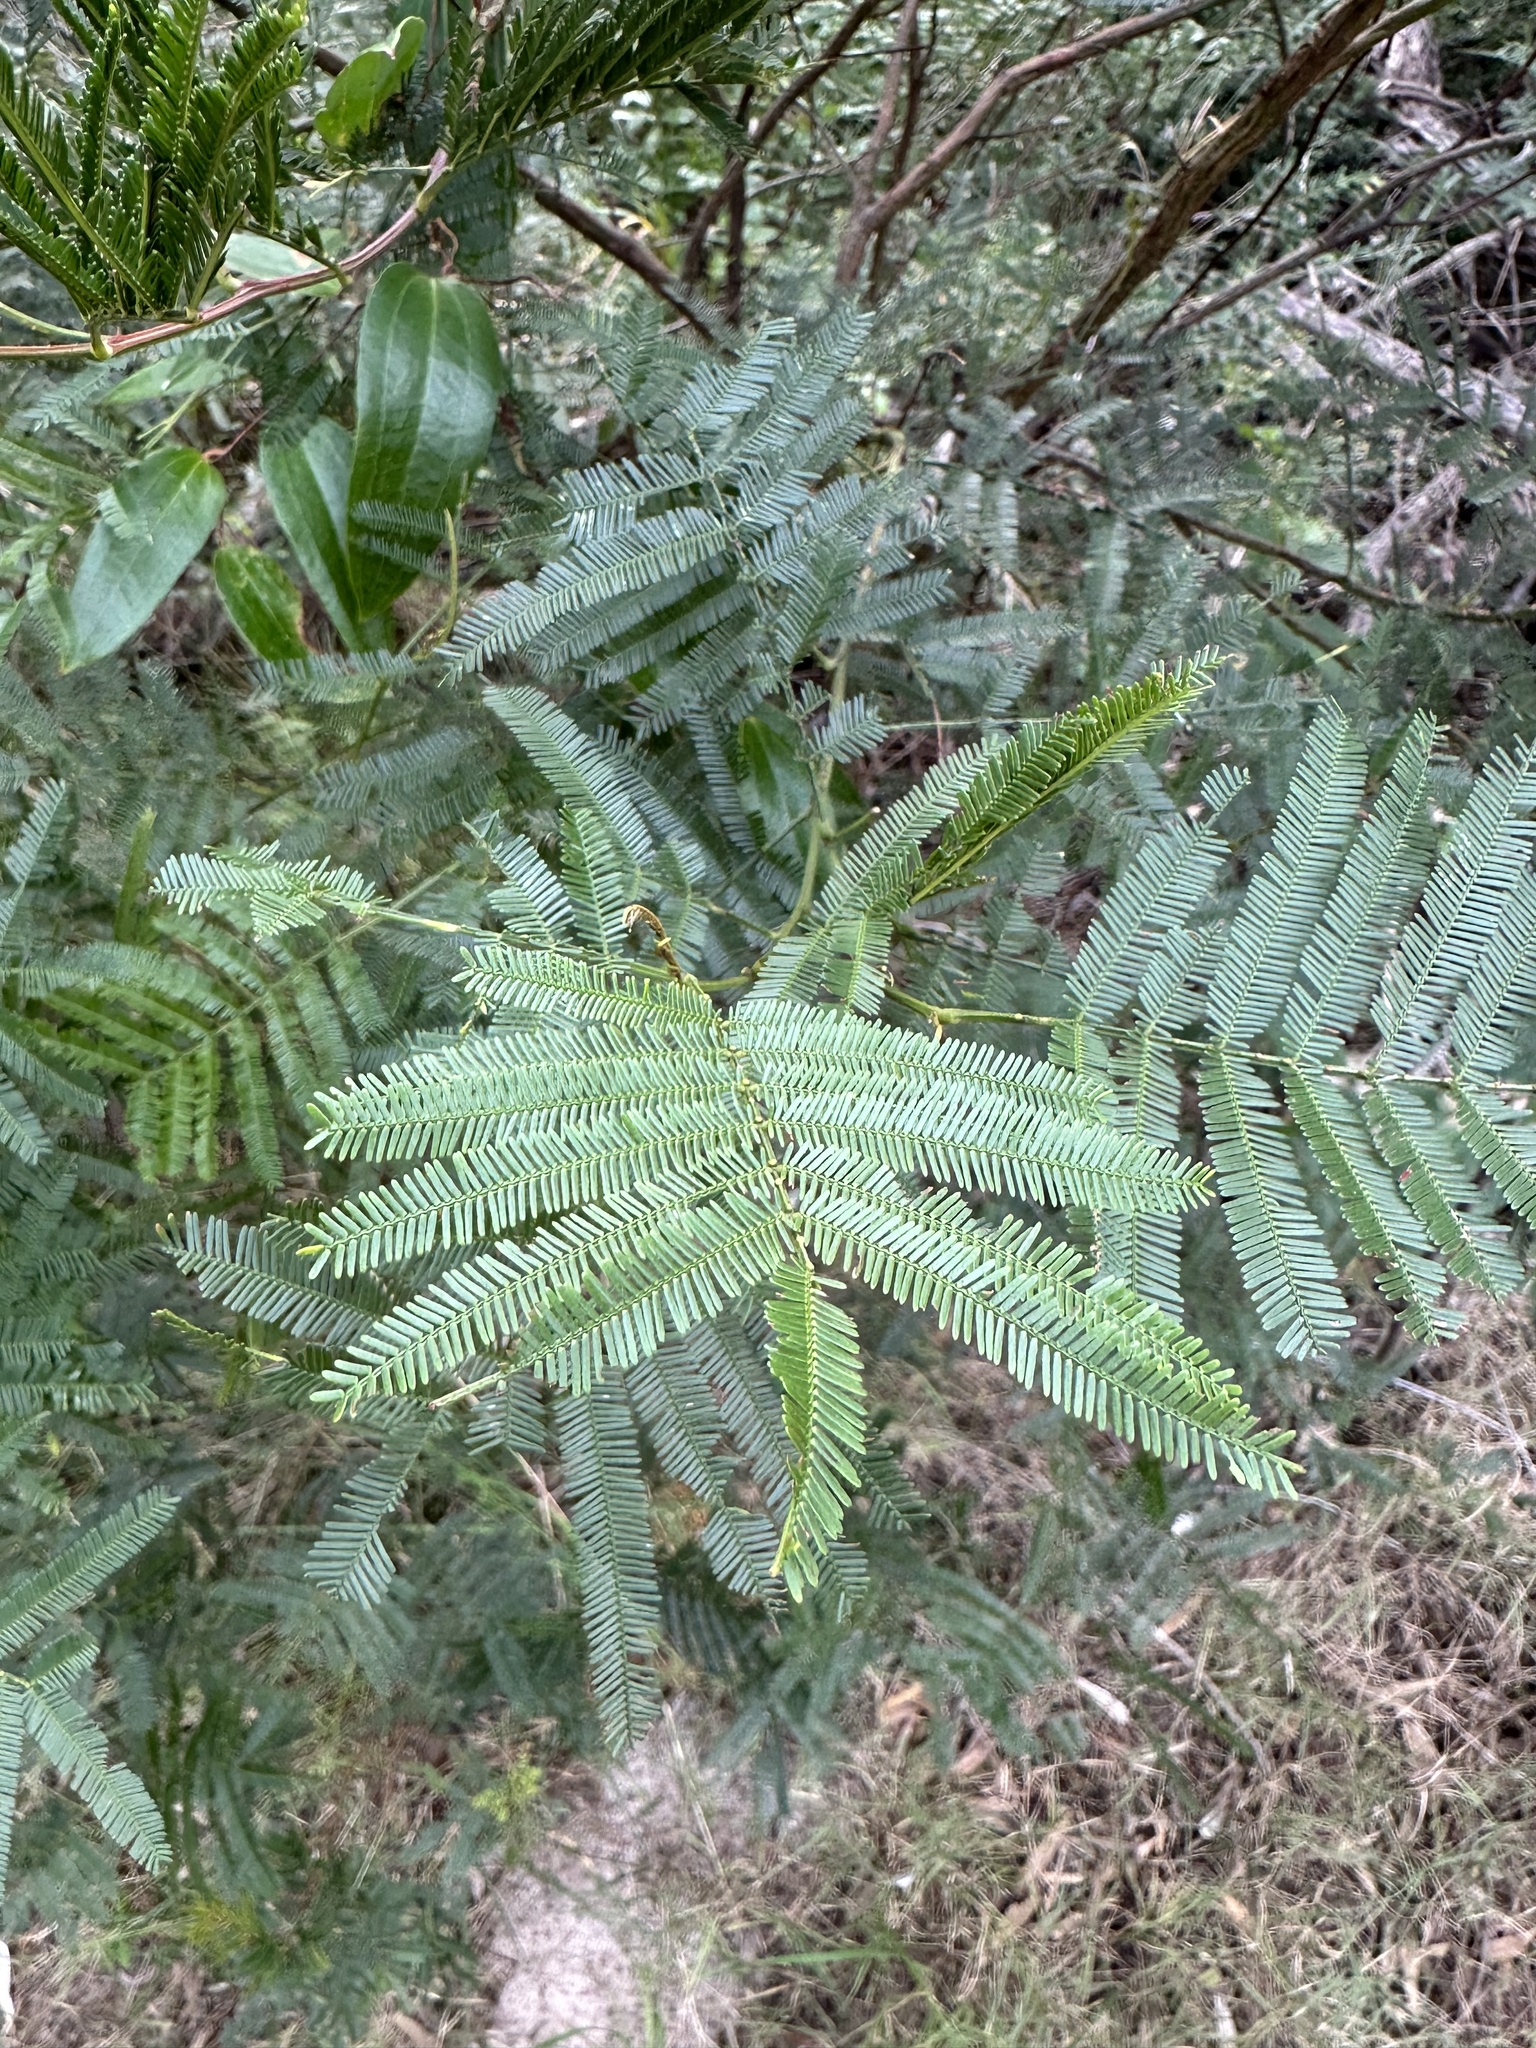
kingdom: Plantae
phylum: Tracheophyta
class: Magnoliopsida
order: Fabales
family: Fabaceae
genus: Acacia
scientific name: Acacia parramattensis
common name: Sydney green wattle
